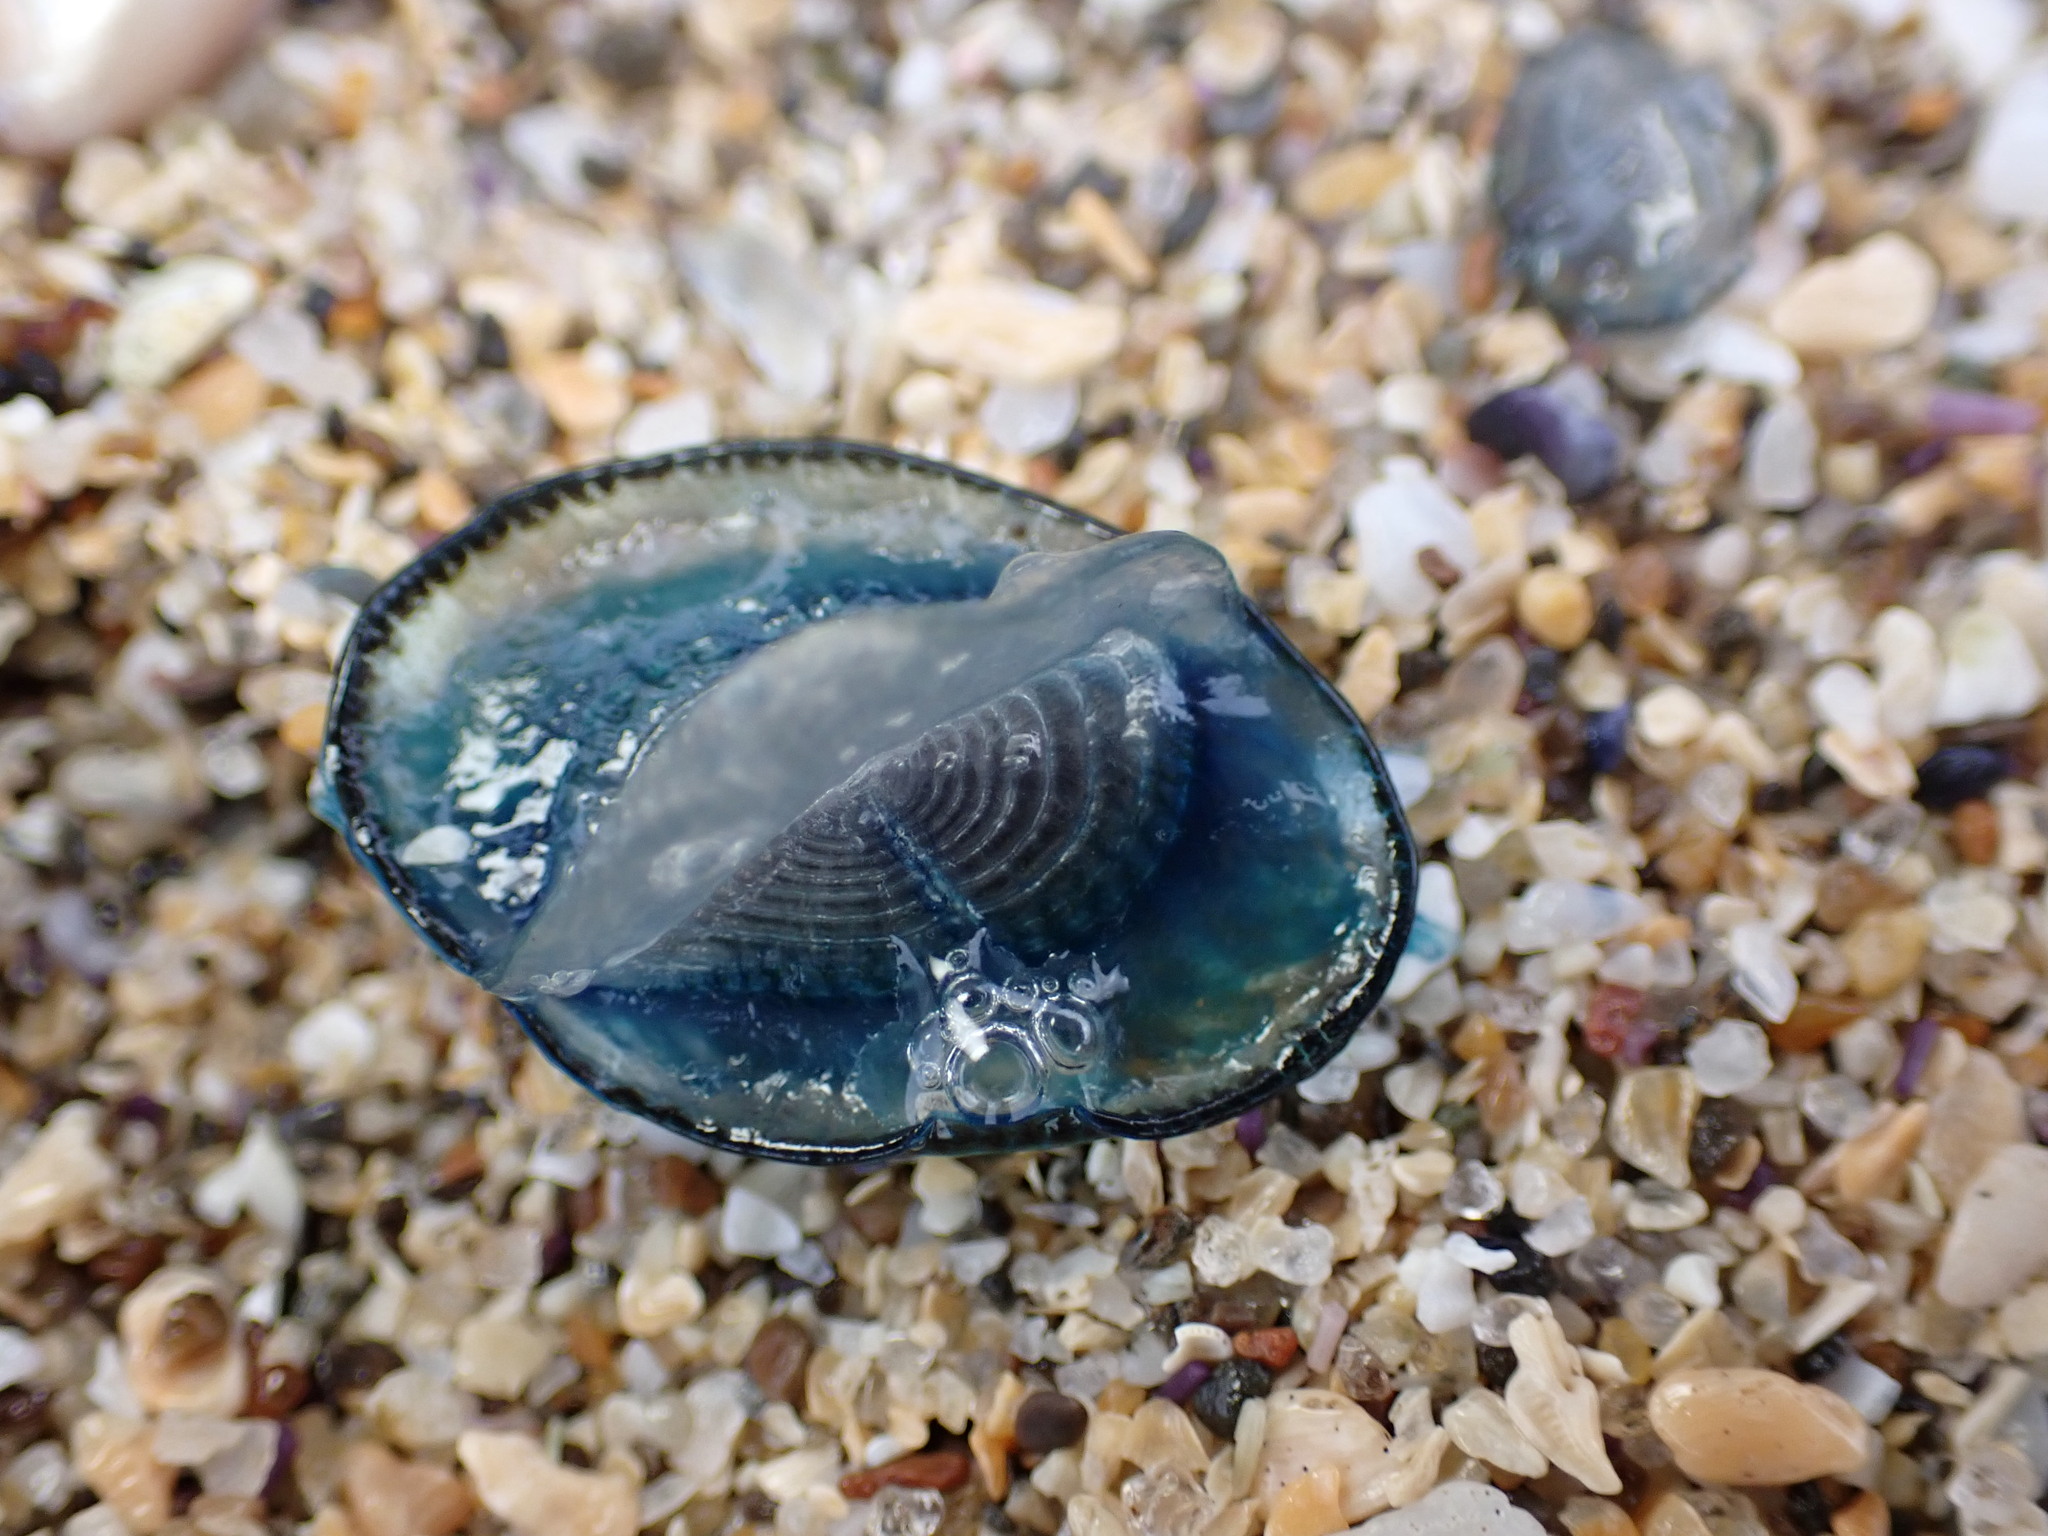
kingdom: Animalia
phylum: Cnidaria
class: Hydrozoa
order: Anthoathecata
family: Porpitidae
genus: Velella
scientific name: Velella velella
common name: By-the-wind-sailor
